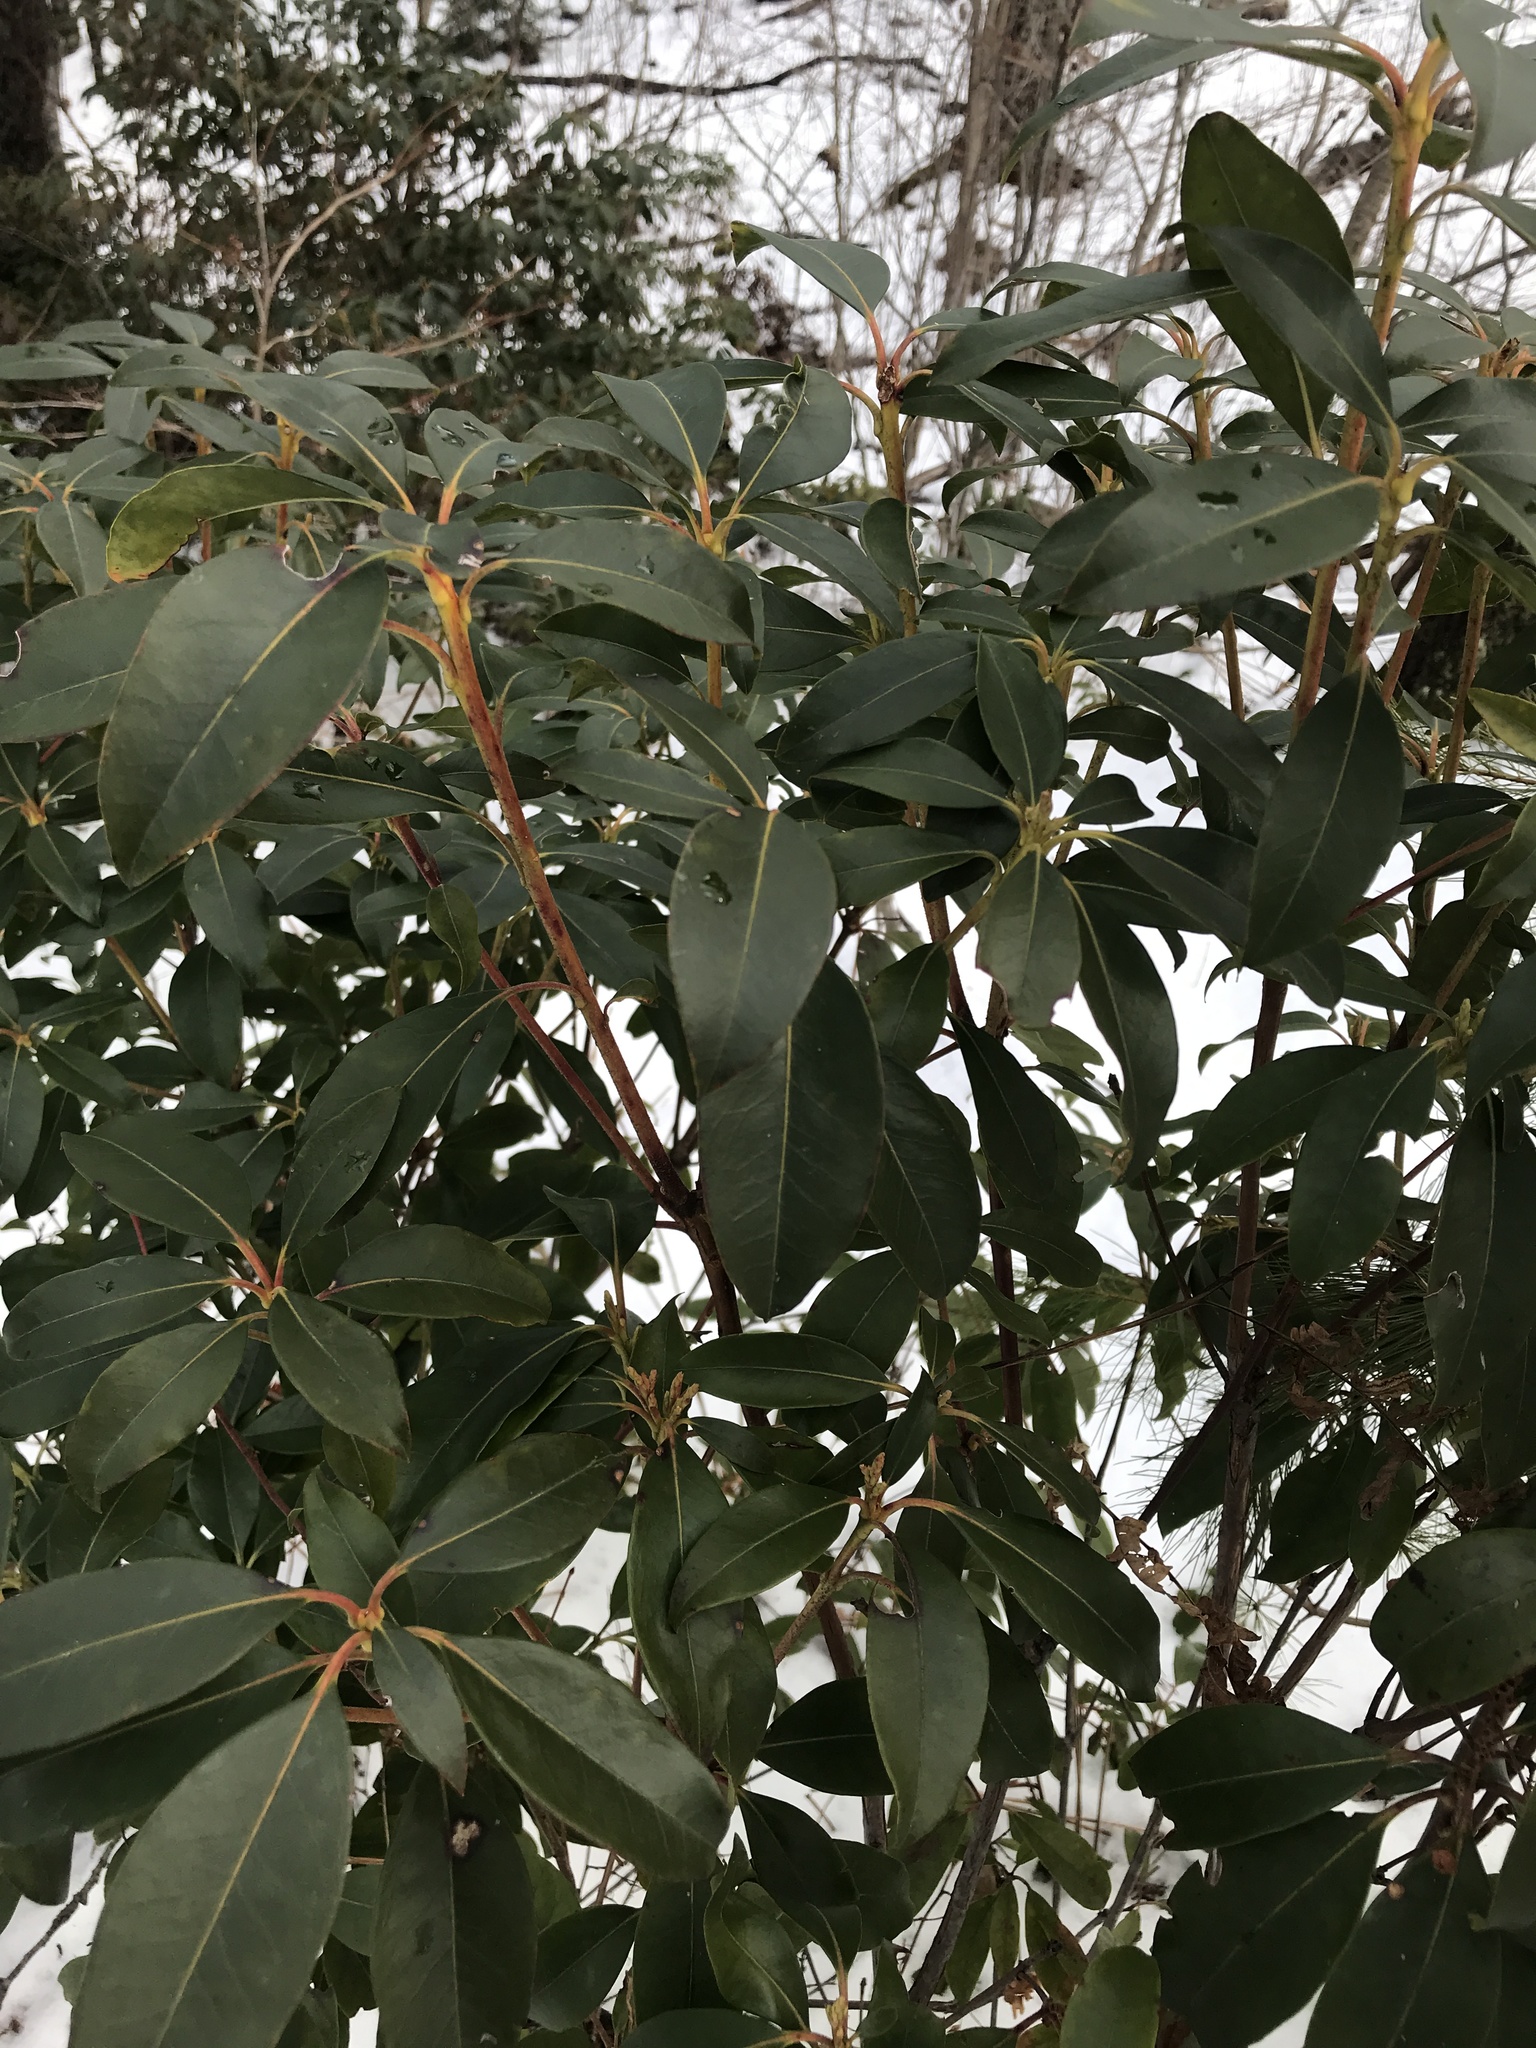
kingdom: Plantae
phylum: Tracheophyta
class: Magnoliopsida
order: Ericales
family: Ericaceae
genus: Kalmia
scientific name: Kalmia latifolia
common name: Mountain-laurel
